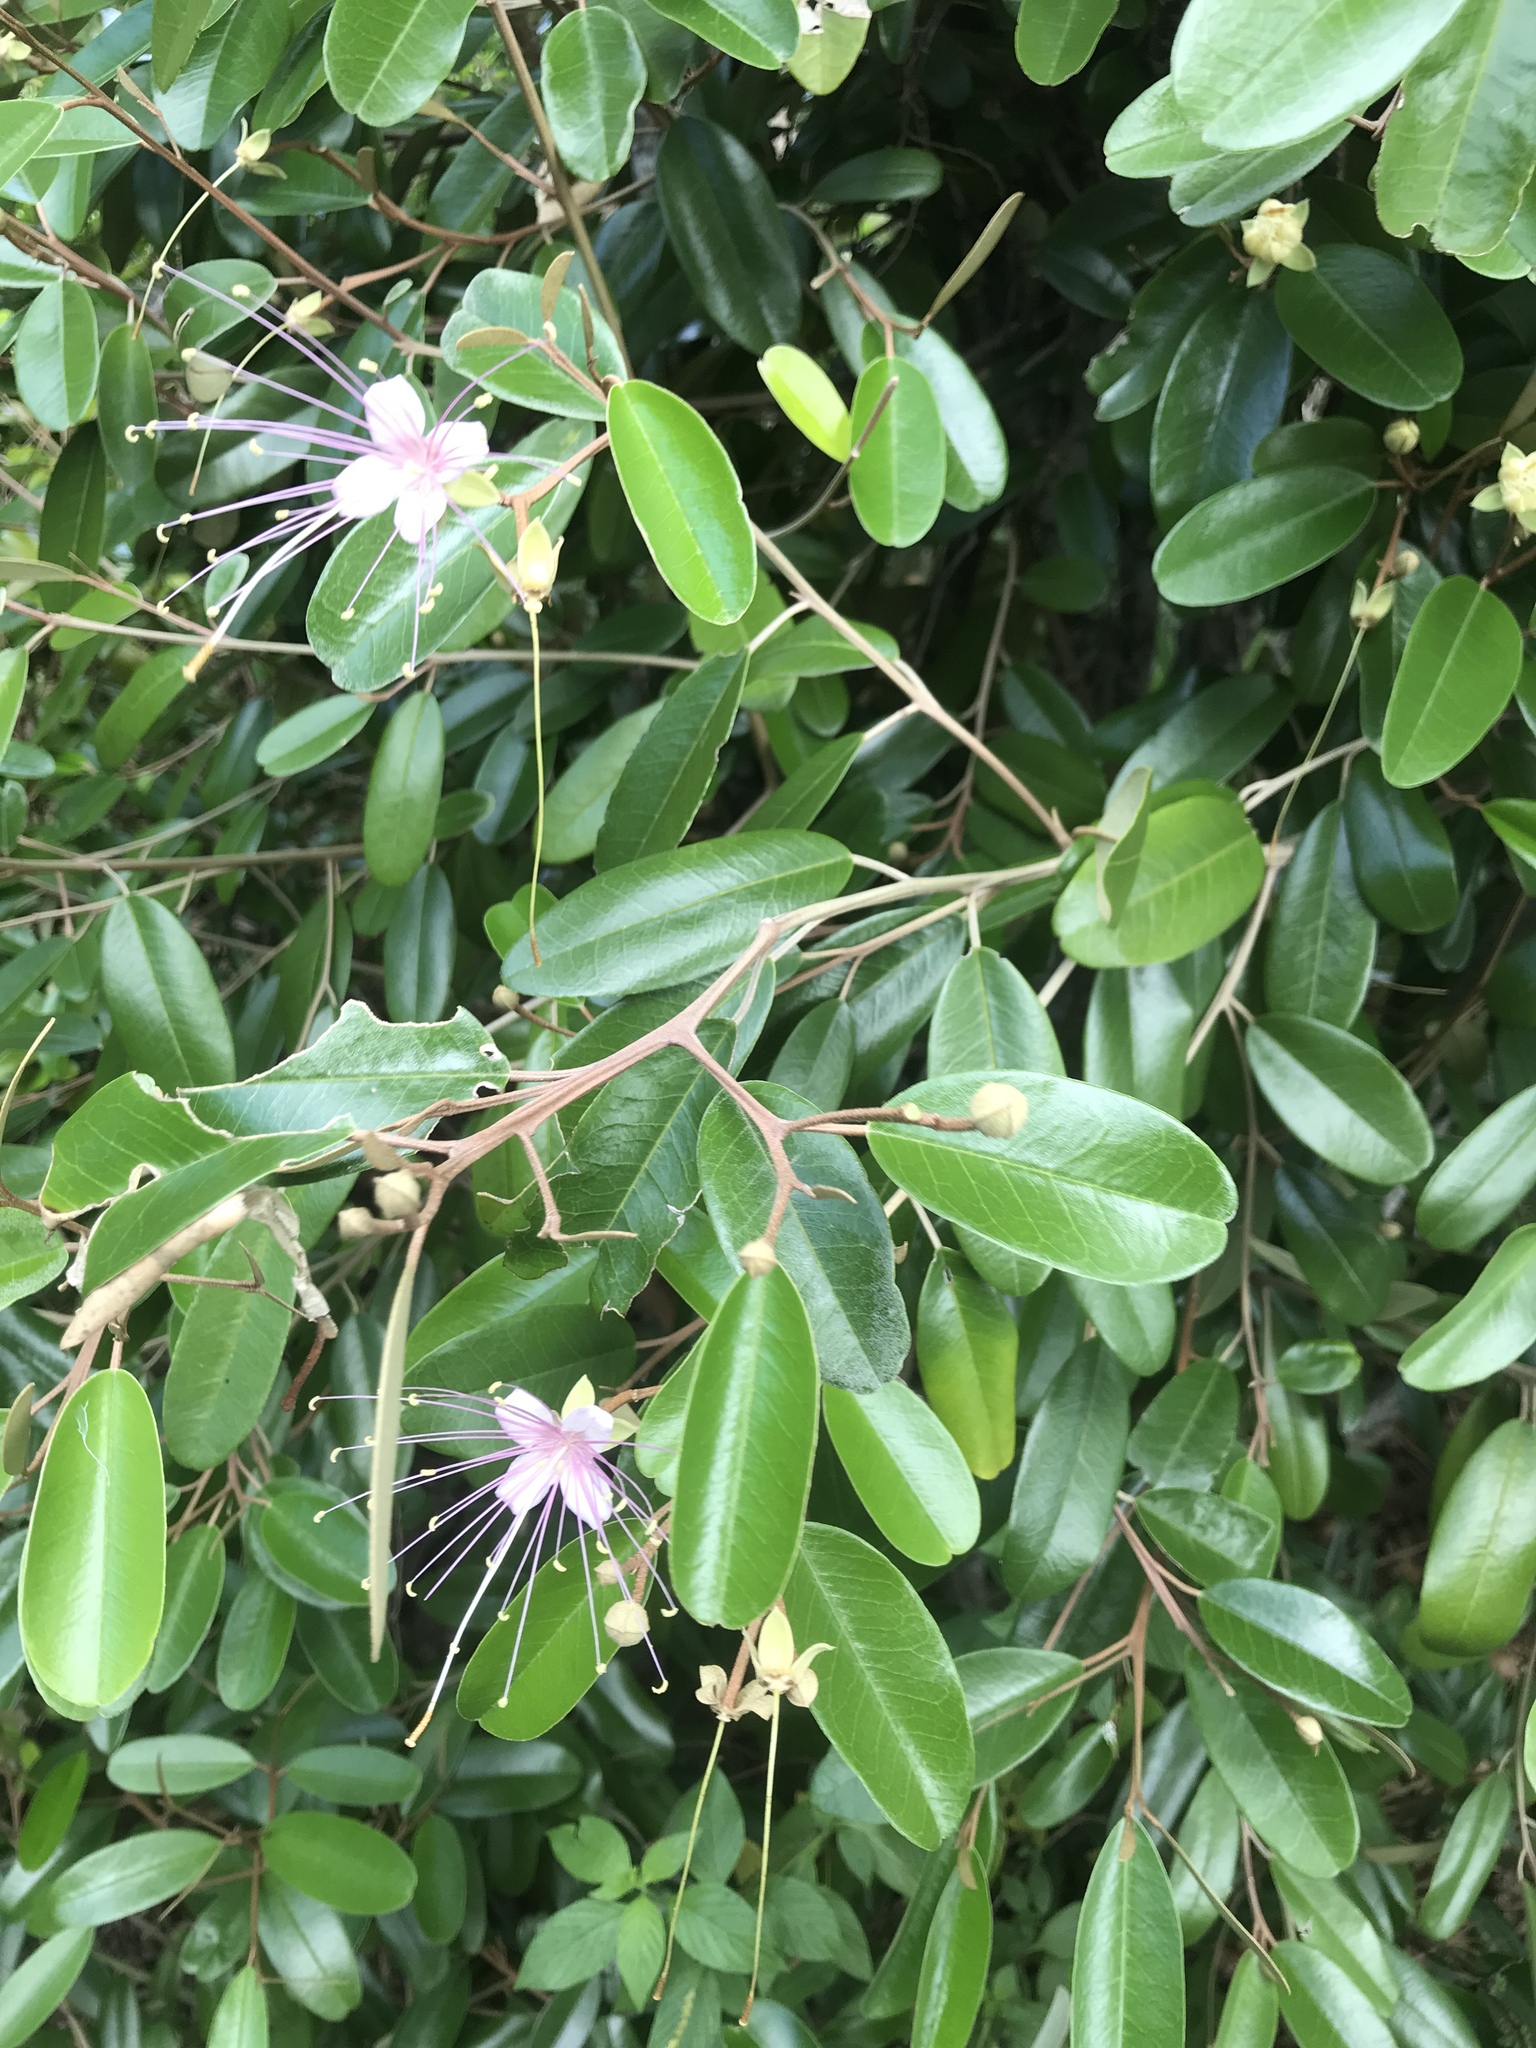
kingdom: Plantae
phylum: Tracheophyta
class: Magnoliopsida
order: Brassicales
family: Capparaceae
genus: Quadrella
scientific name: Quadrella cynophallophora
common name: Black willow
